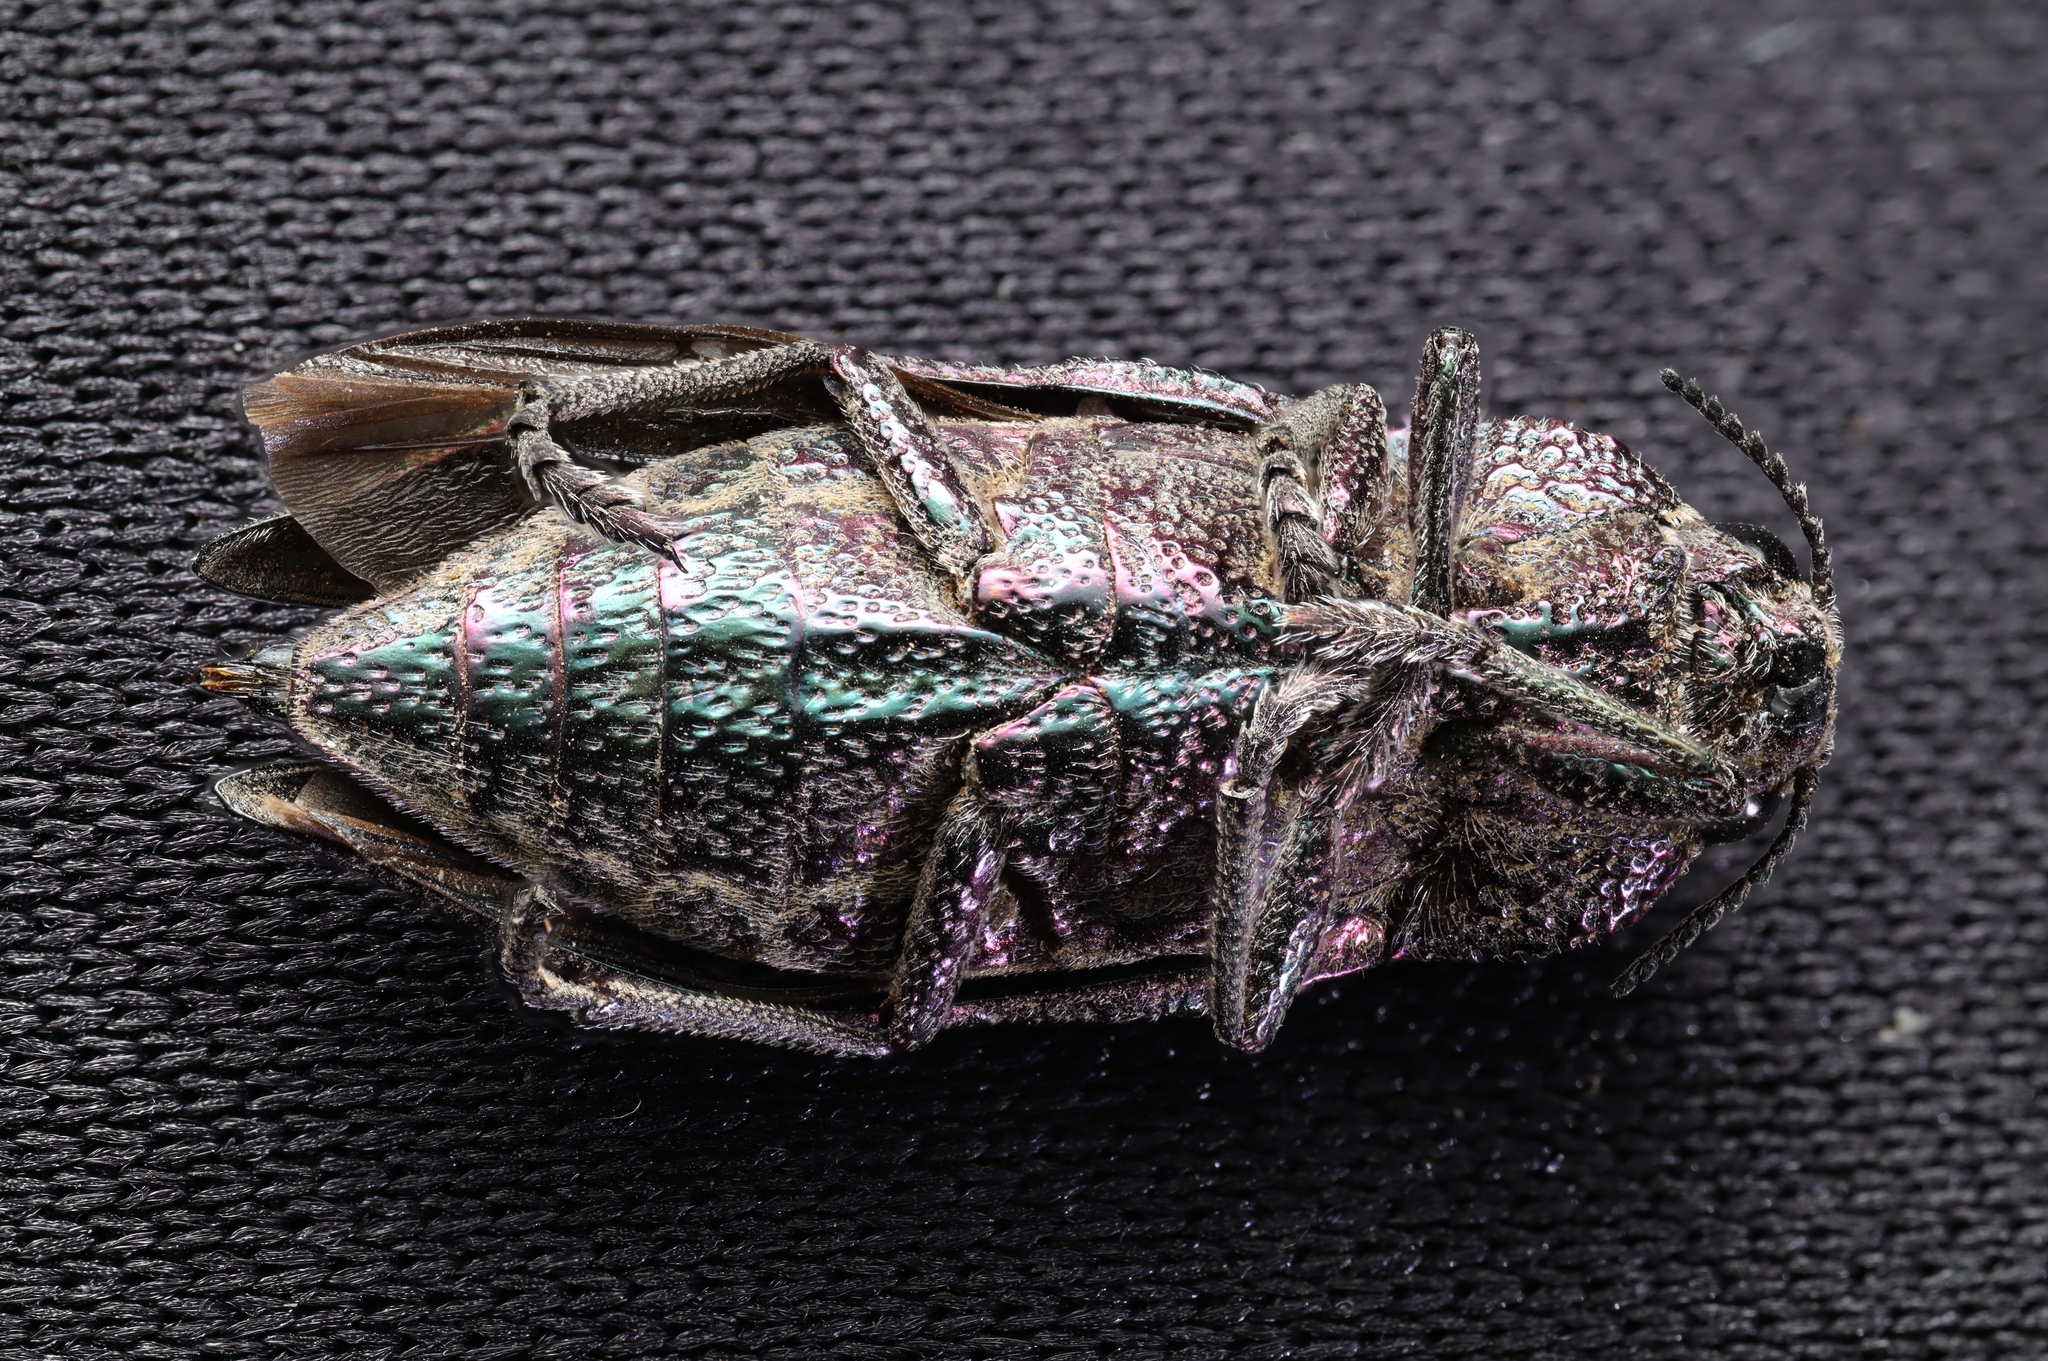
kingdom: Animalia
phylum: Arthropoda
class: Insecta
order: Coleoptera
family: Buprestidae
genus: Ectinogonia
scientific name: Ectinogonia speciosa
